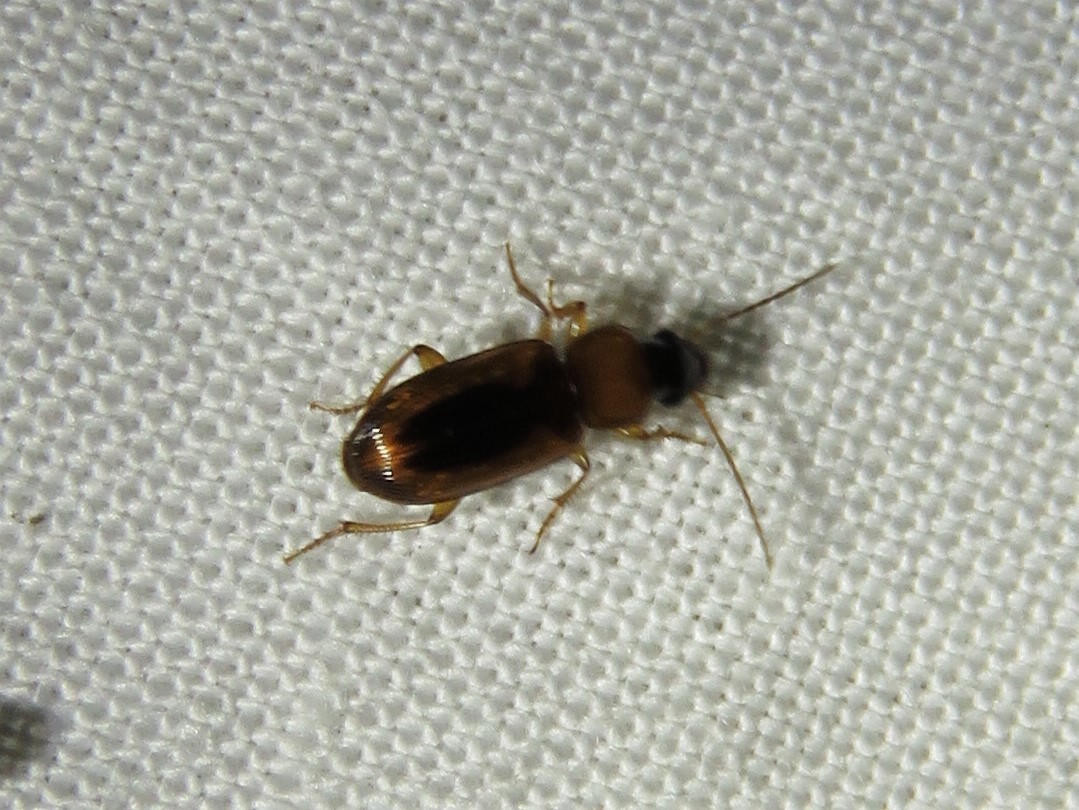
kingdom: Animalia
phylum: Arthropoda
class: Insecta
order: Coleoptera
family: Carabidae
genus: Stenolophus
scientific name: Stenolophus dissimilis
